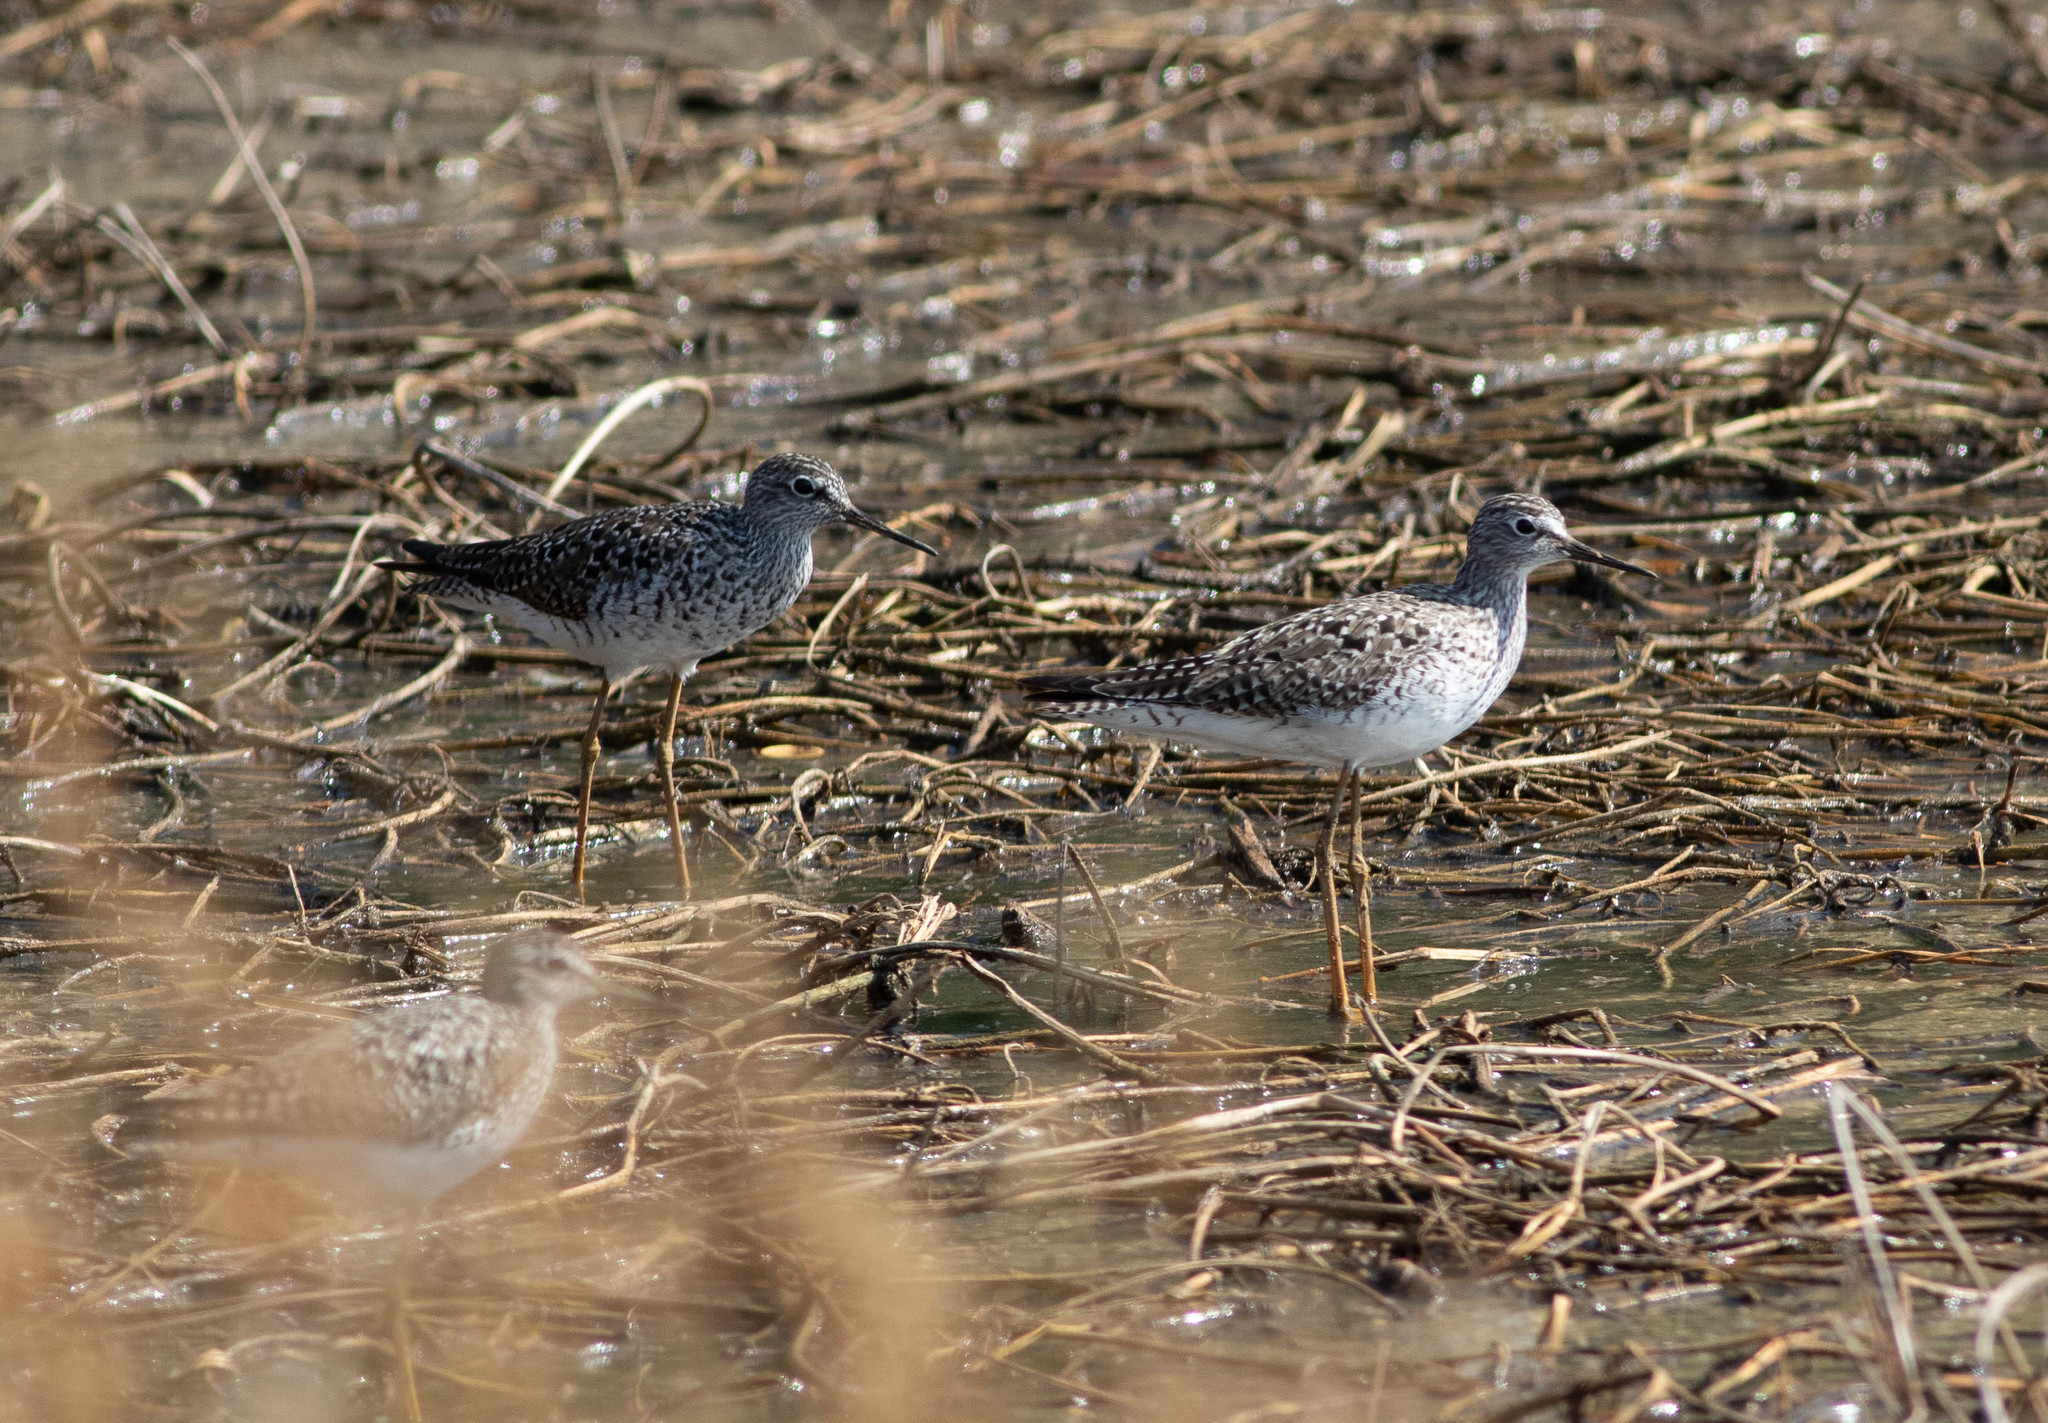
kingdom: Animalia
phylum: Chordata
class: Aves
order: Charadriiformes
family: Scolopacidae
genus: Tringa
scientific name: Tringa flavipes
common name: Lesser yellowlegs
